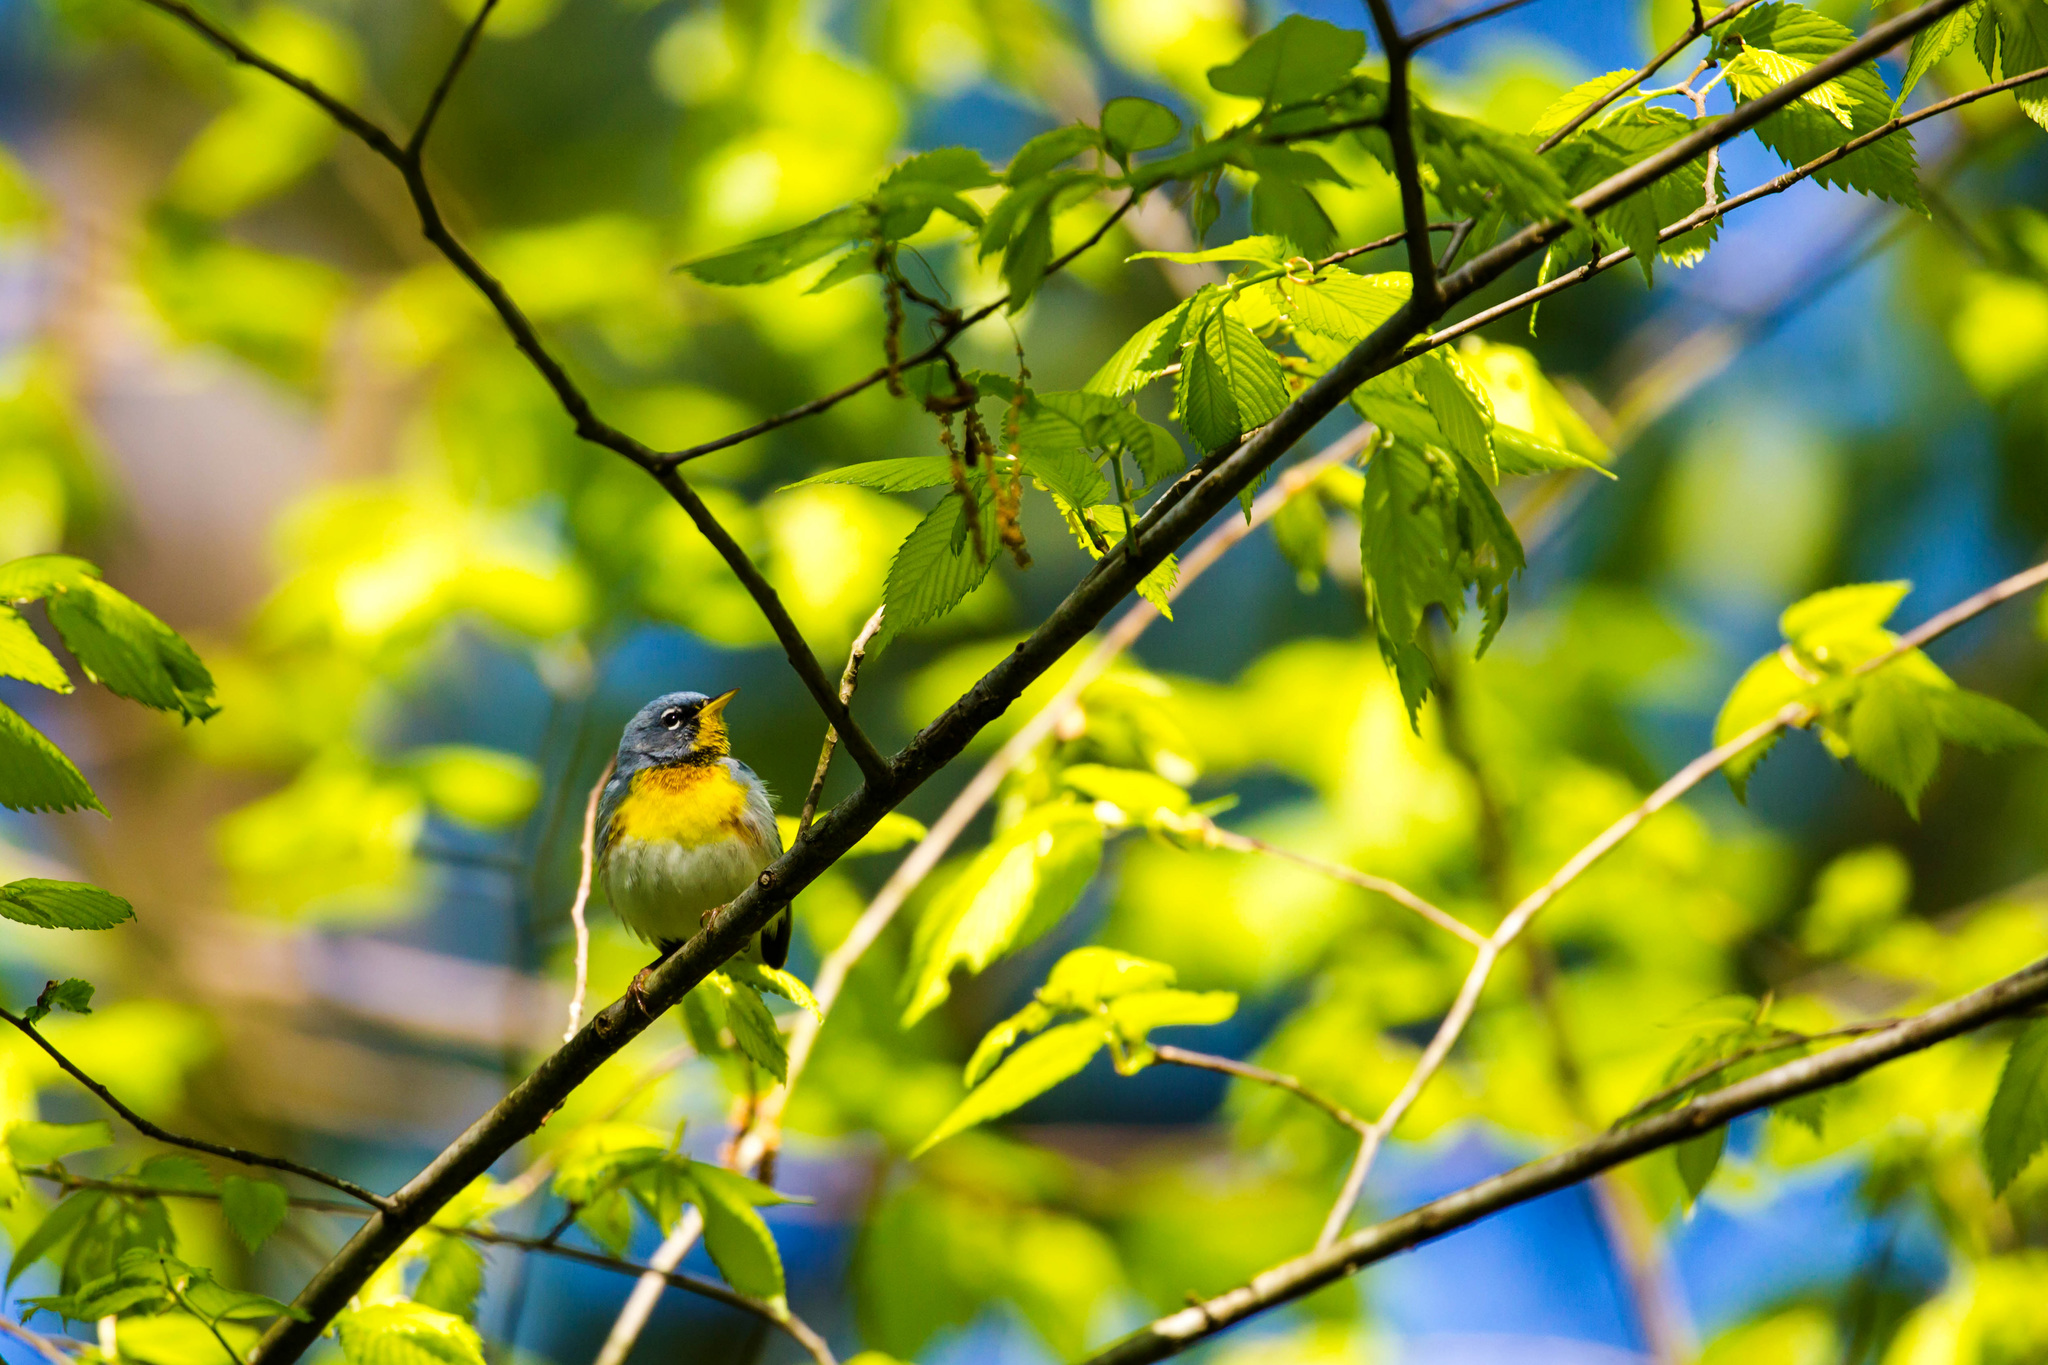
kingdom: Animalia
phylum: Chordata
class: Aves
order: Passeriformes
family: Parulidae
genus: Setophaga
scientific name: Setophaga americana
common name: Northern parula
